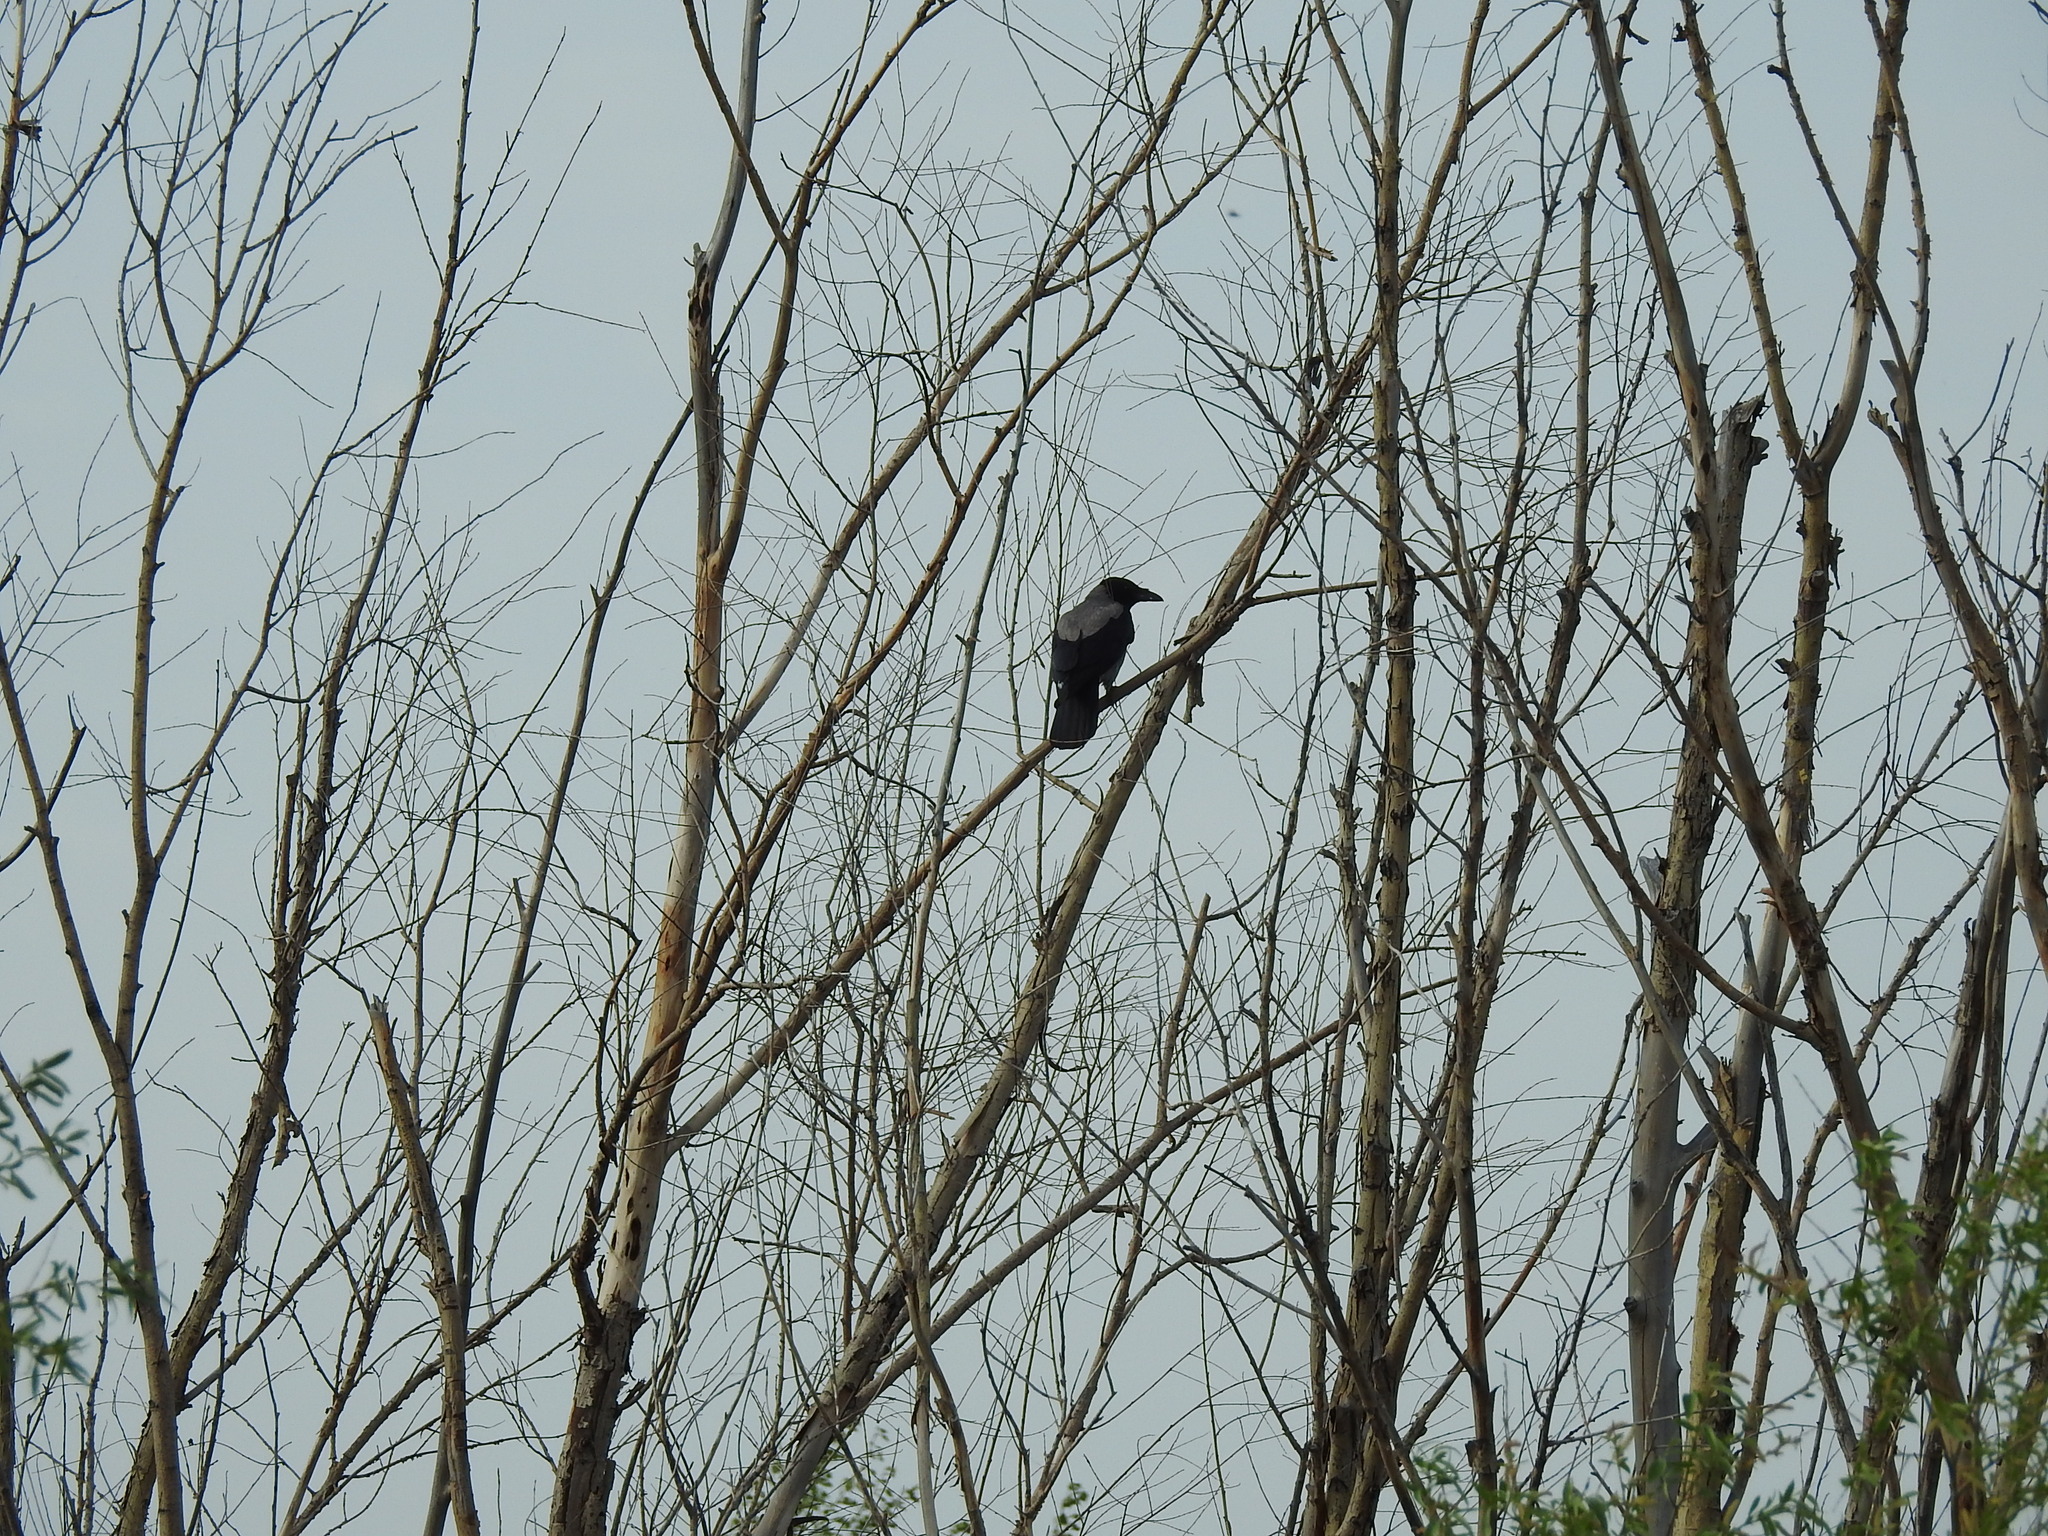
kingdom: Animalia
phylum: Chordata
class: Aves
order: Passeriformes
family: Corvidae
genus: Corvus
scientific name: Corvus cornix
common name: Hooded crow
